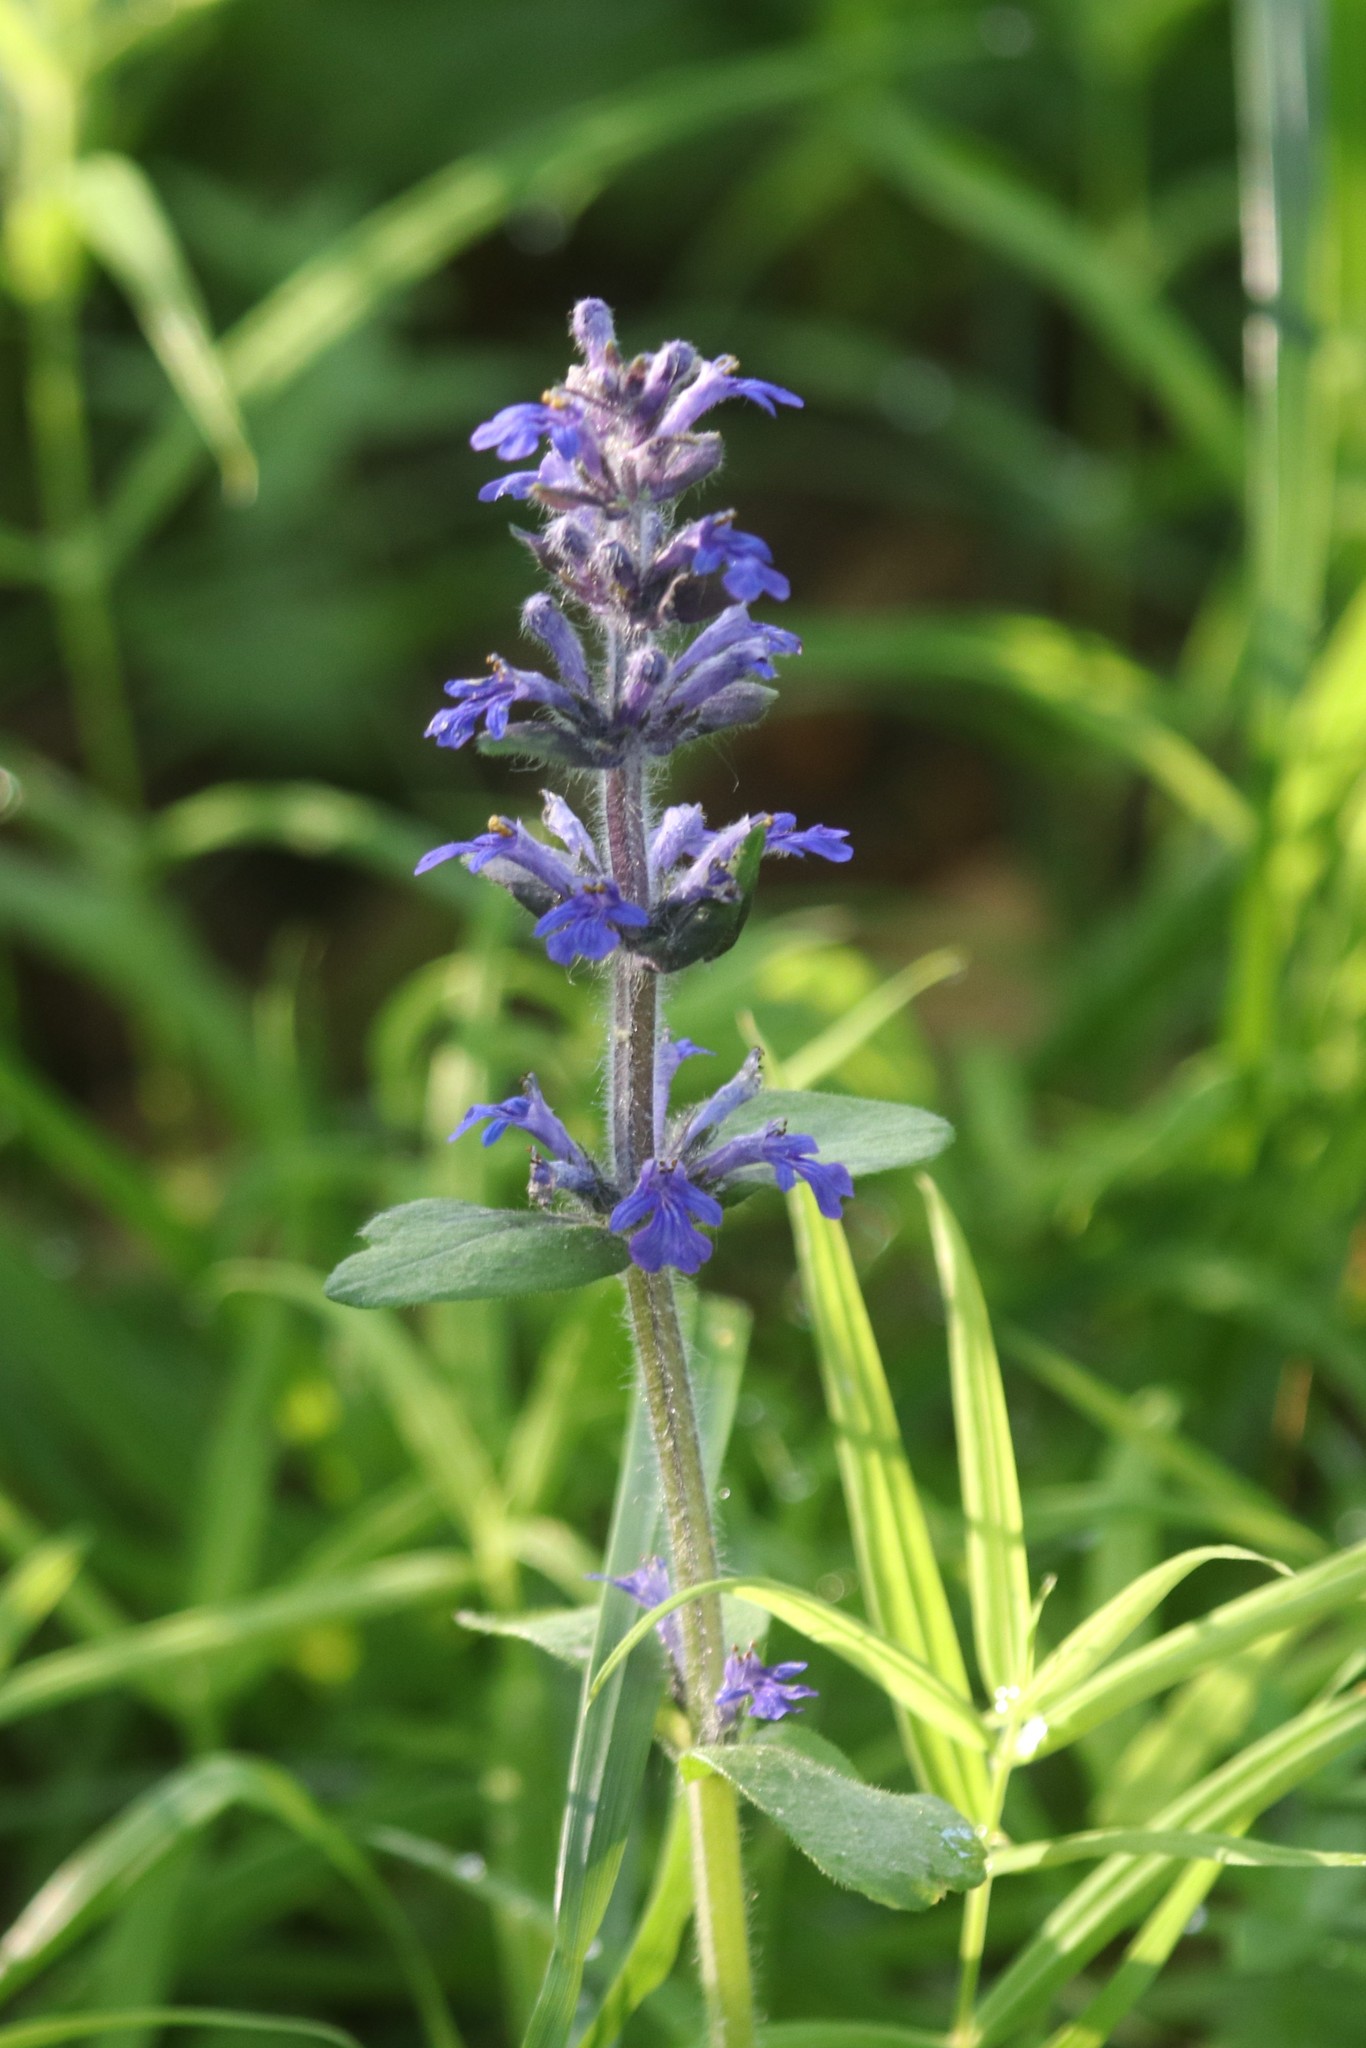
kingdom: Plantae
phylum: Tracheophyta
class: Magnoliopsida
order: Lamiales
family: Lamiaceae
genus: Ajuga
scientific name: Ajuga reptans
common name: Bugle
